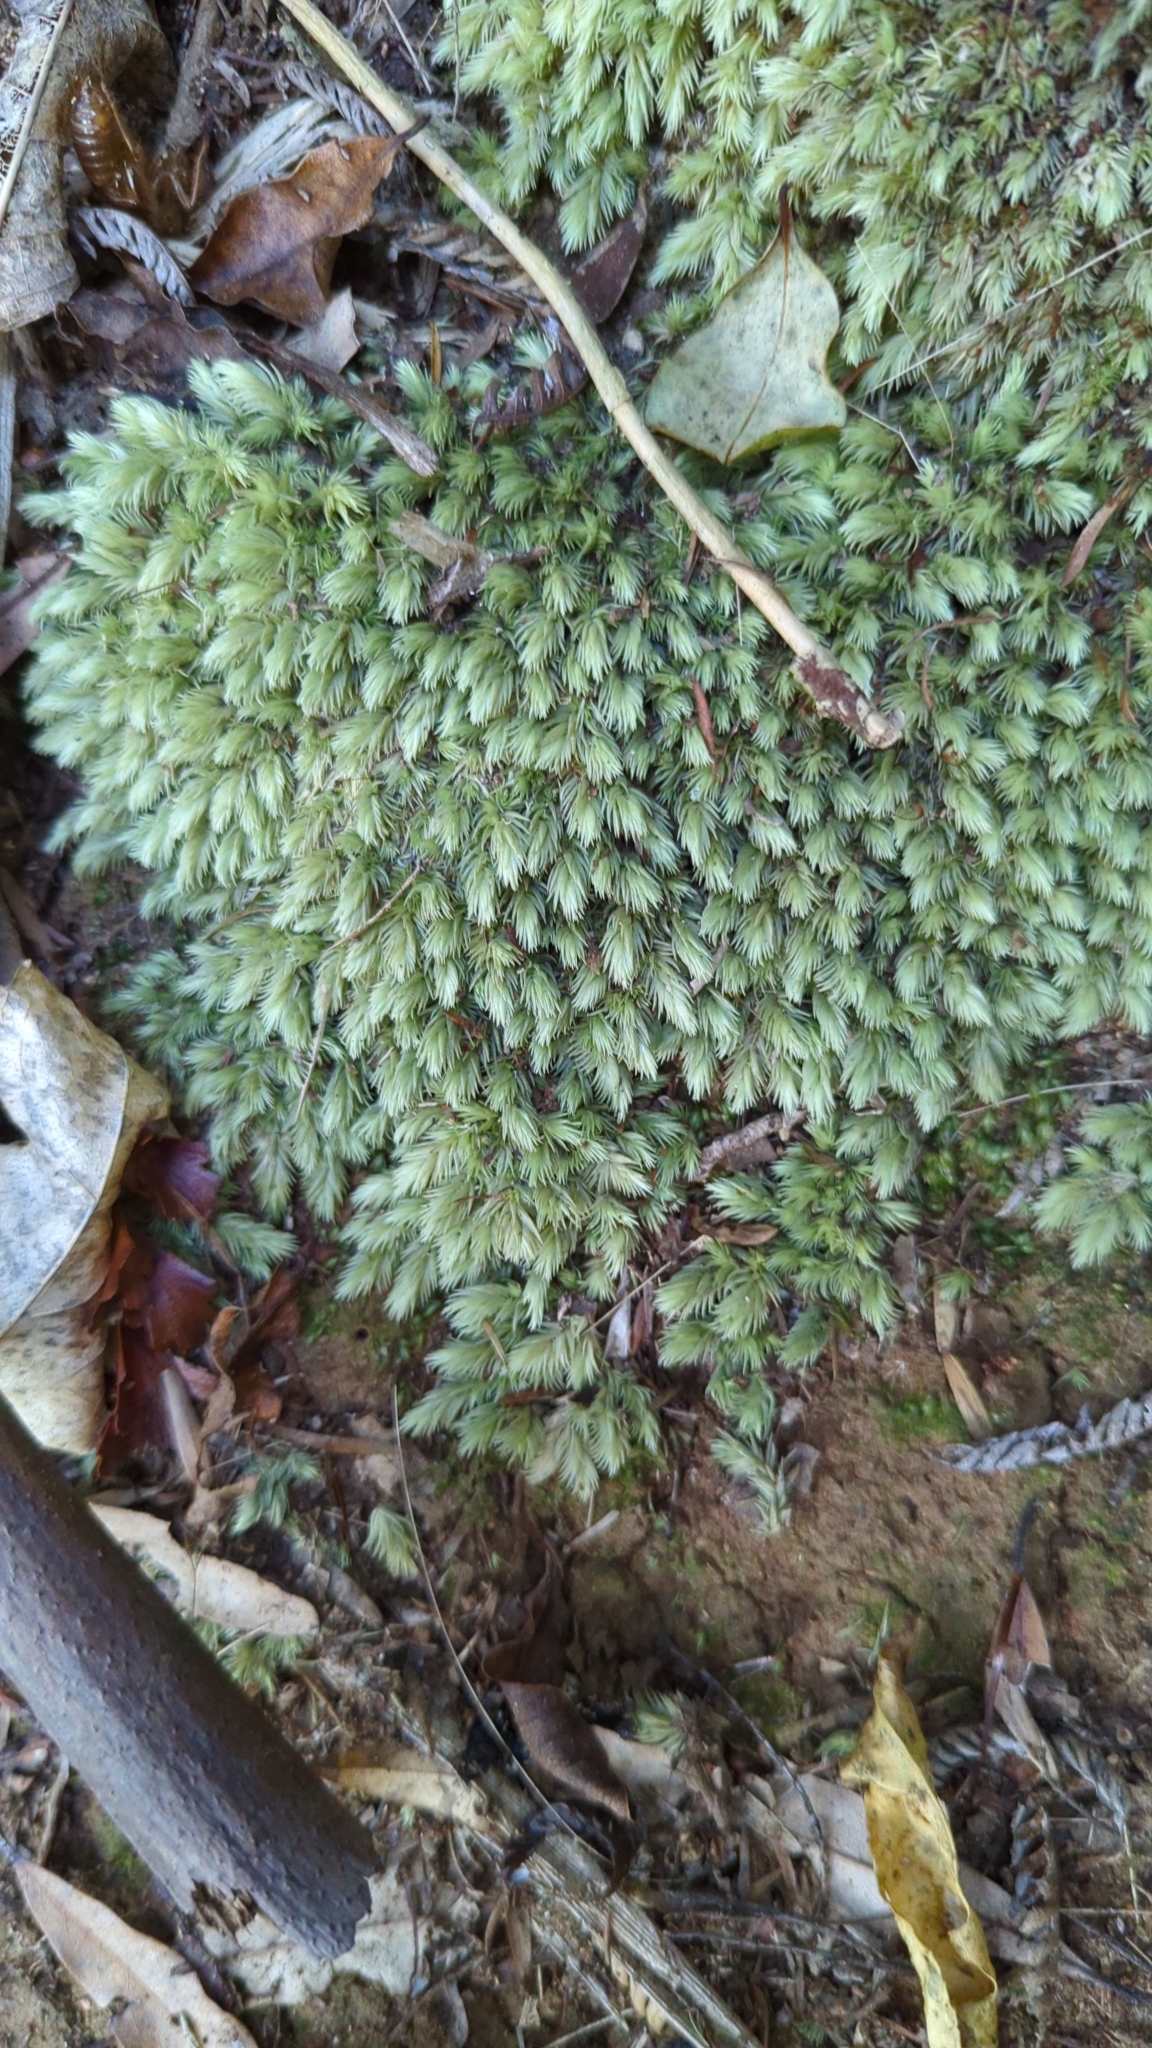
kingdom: Plantae
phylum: Bryophyta
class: Bryopsida
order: Dicranales
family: Leucobryaceae
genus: Leucobryum
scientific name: Leucobryum javense
